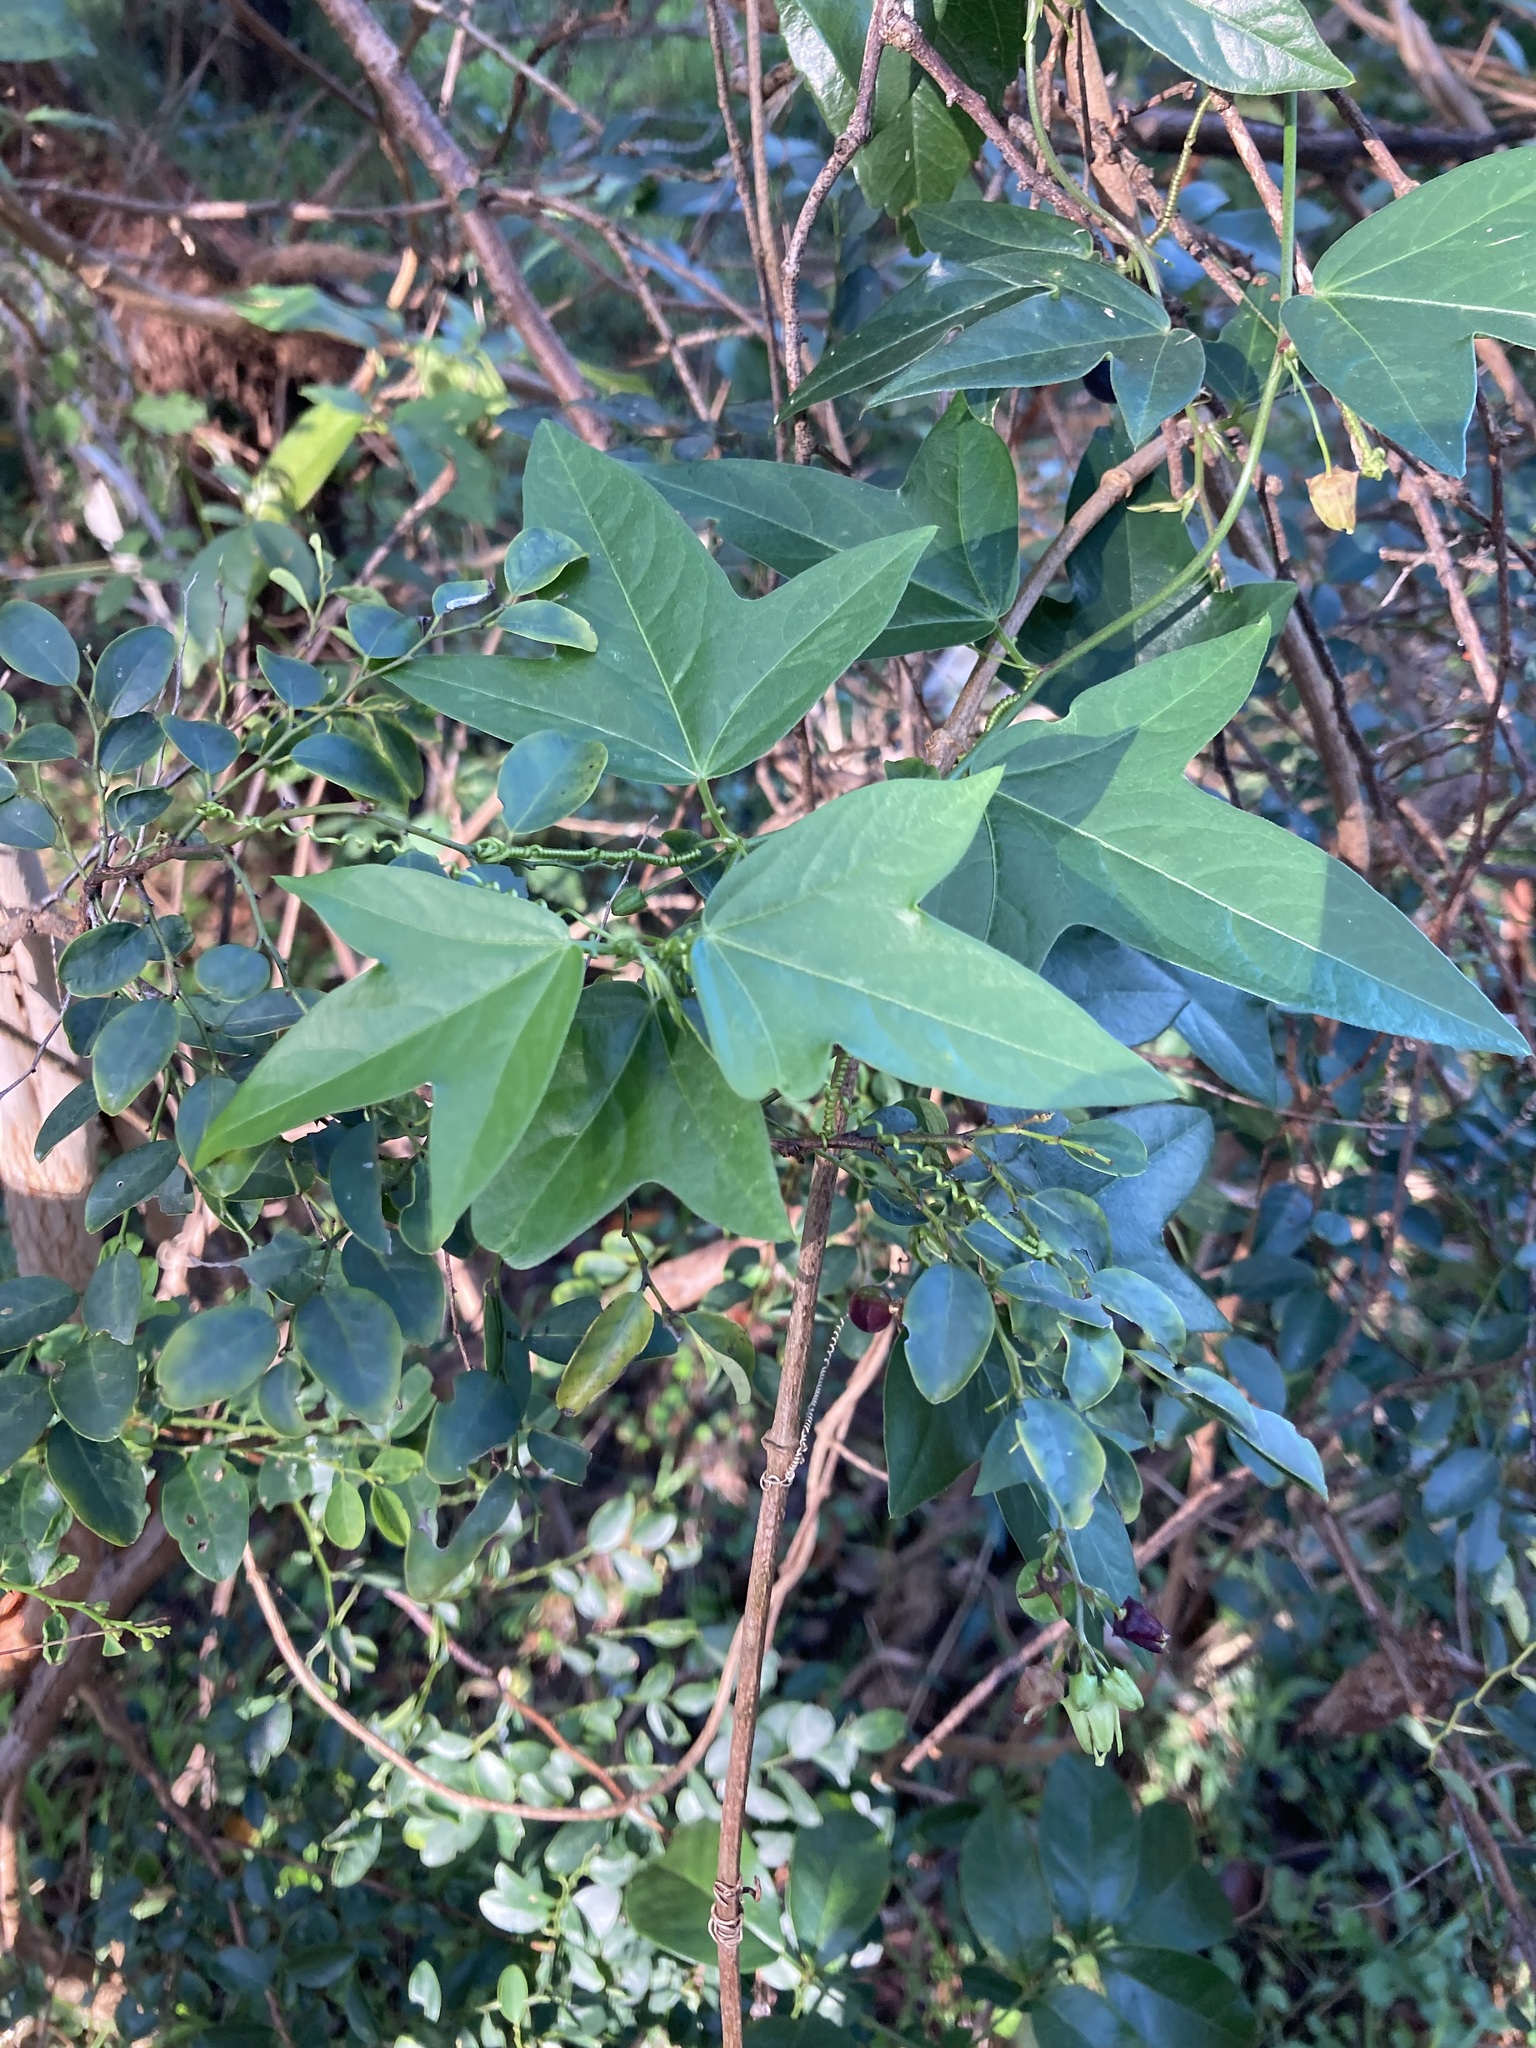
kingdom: Plantae
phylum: Tracheophyta
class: Magnoliopsida
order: Malpighiales
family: Passifloraceae
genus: Passiflora
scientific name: Passiflora suberosa
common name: Wild passionfruit
